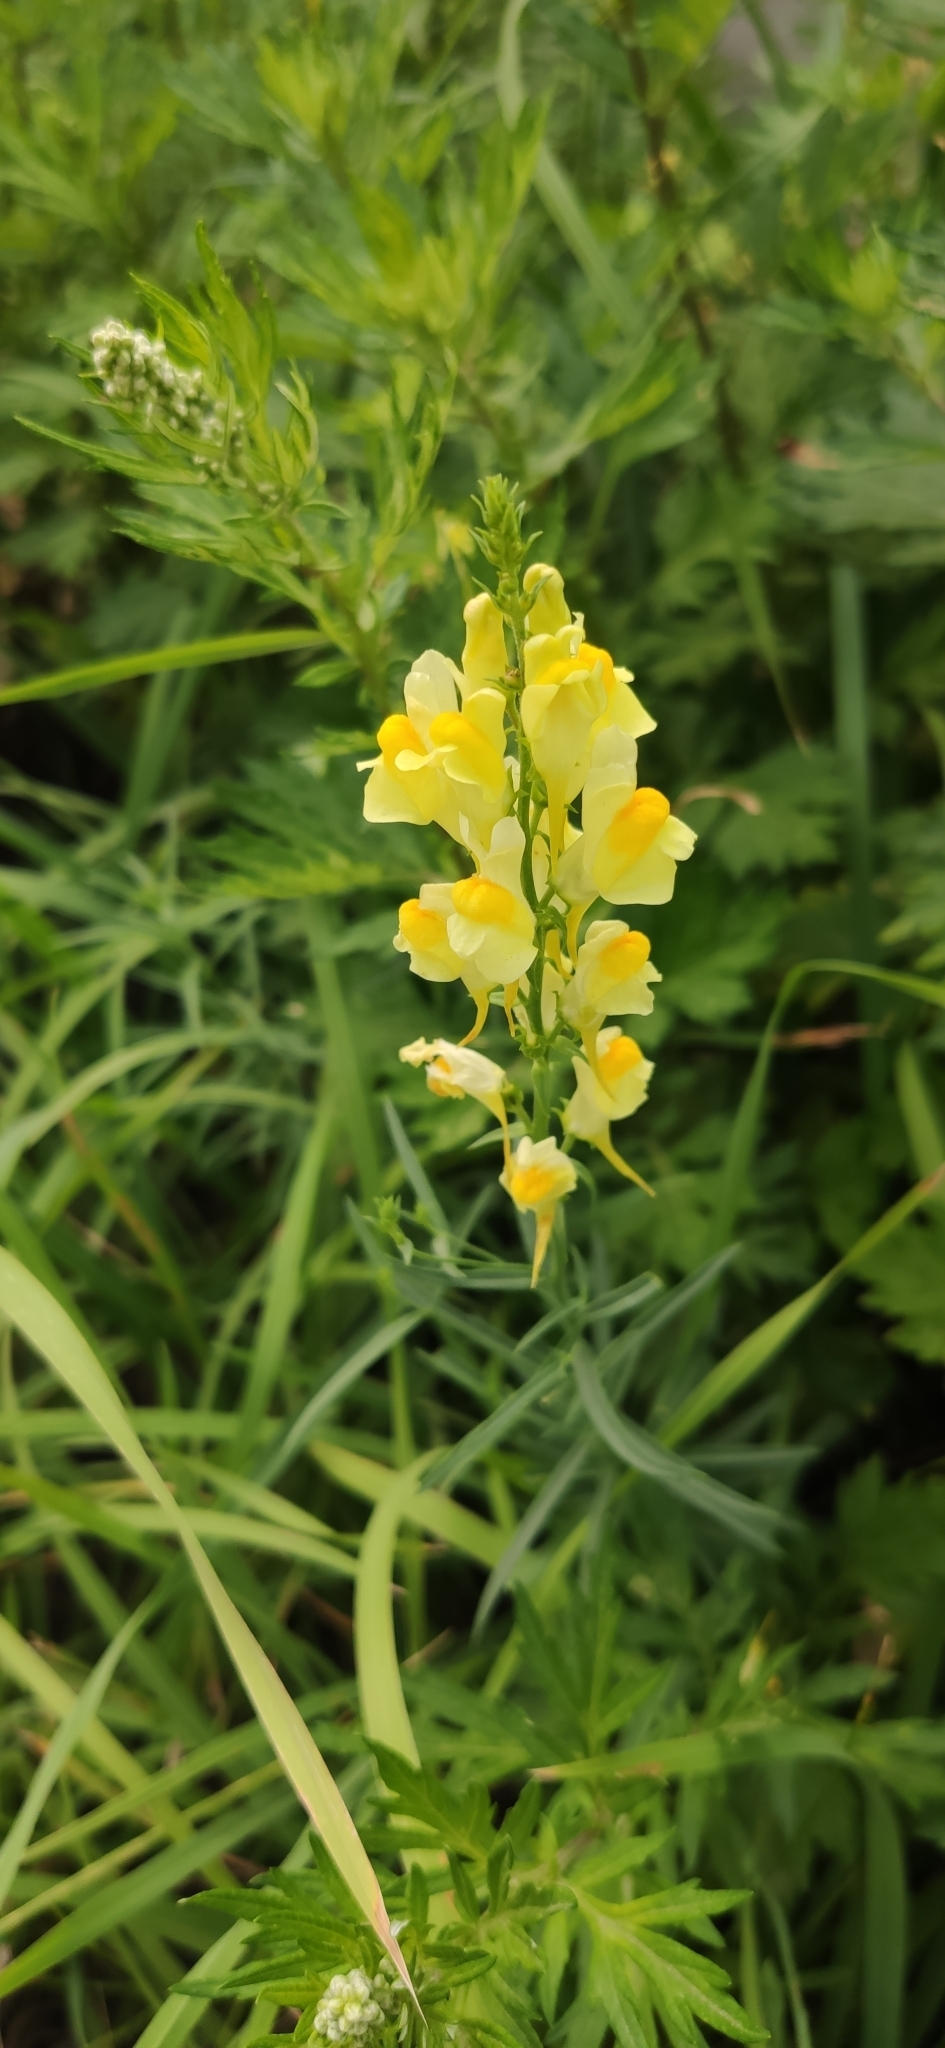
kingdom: Plantae
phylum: Tracheophyta
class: Magnoliopsida
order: Lamiales
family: Plantaginaceae
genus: Linaria
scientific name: Linaria vulgaris
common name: Butter and eggs
